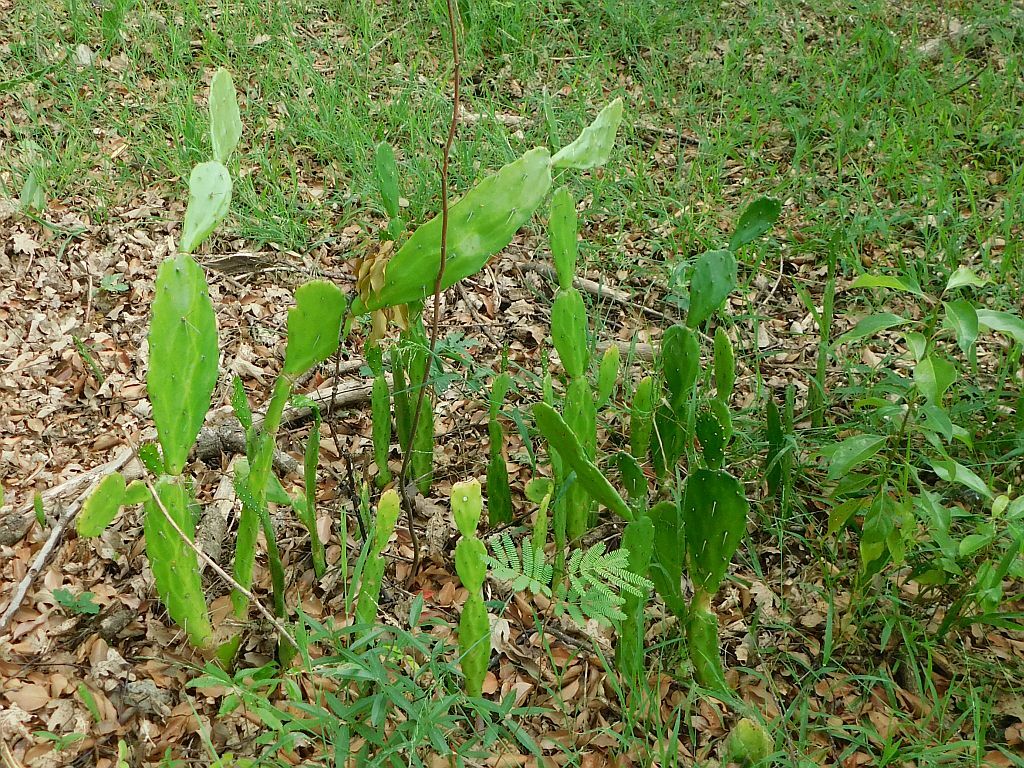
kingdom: Plantae
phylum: Tracheophyta
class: Magnoliopsida
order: Caryophyllales
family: Cactaceae
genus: Opuntia
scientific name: Opuntia monacantha
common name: Common pricklypear
